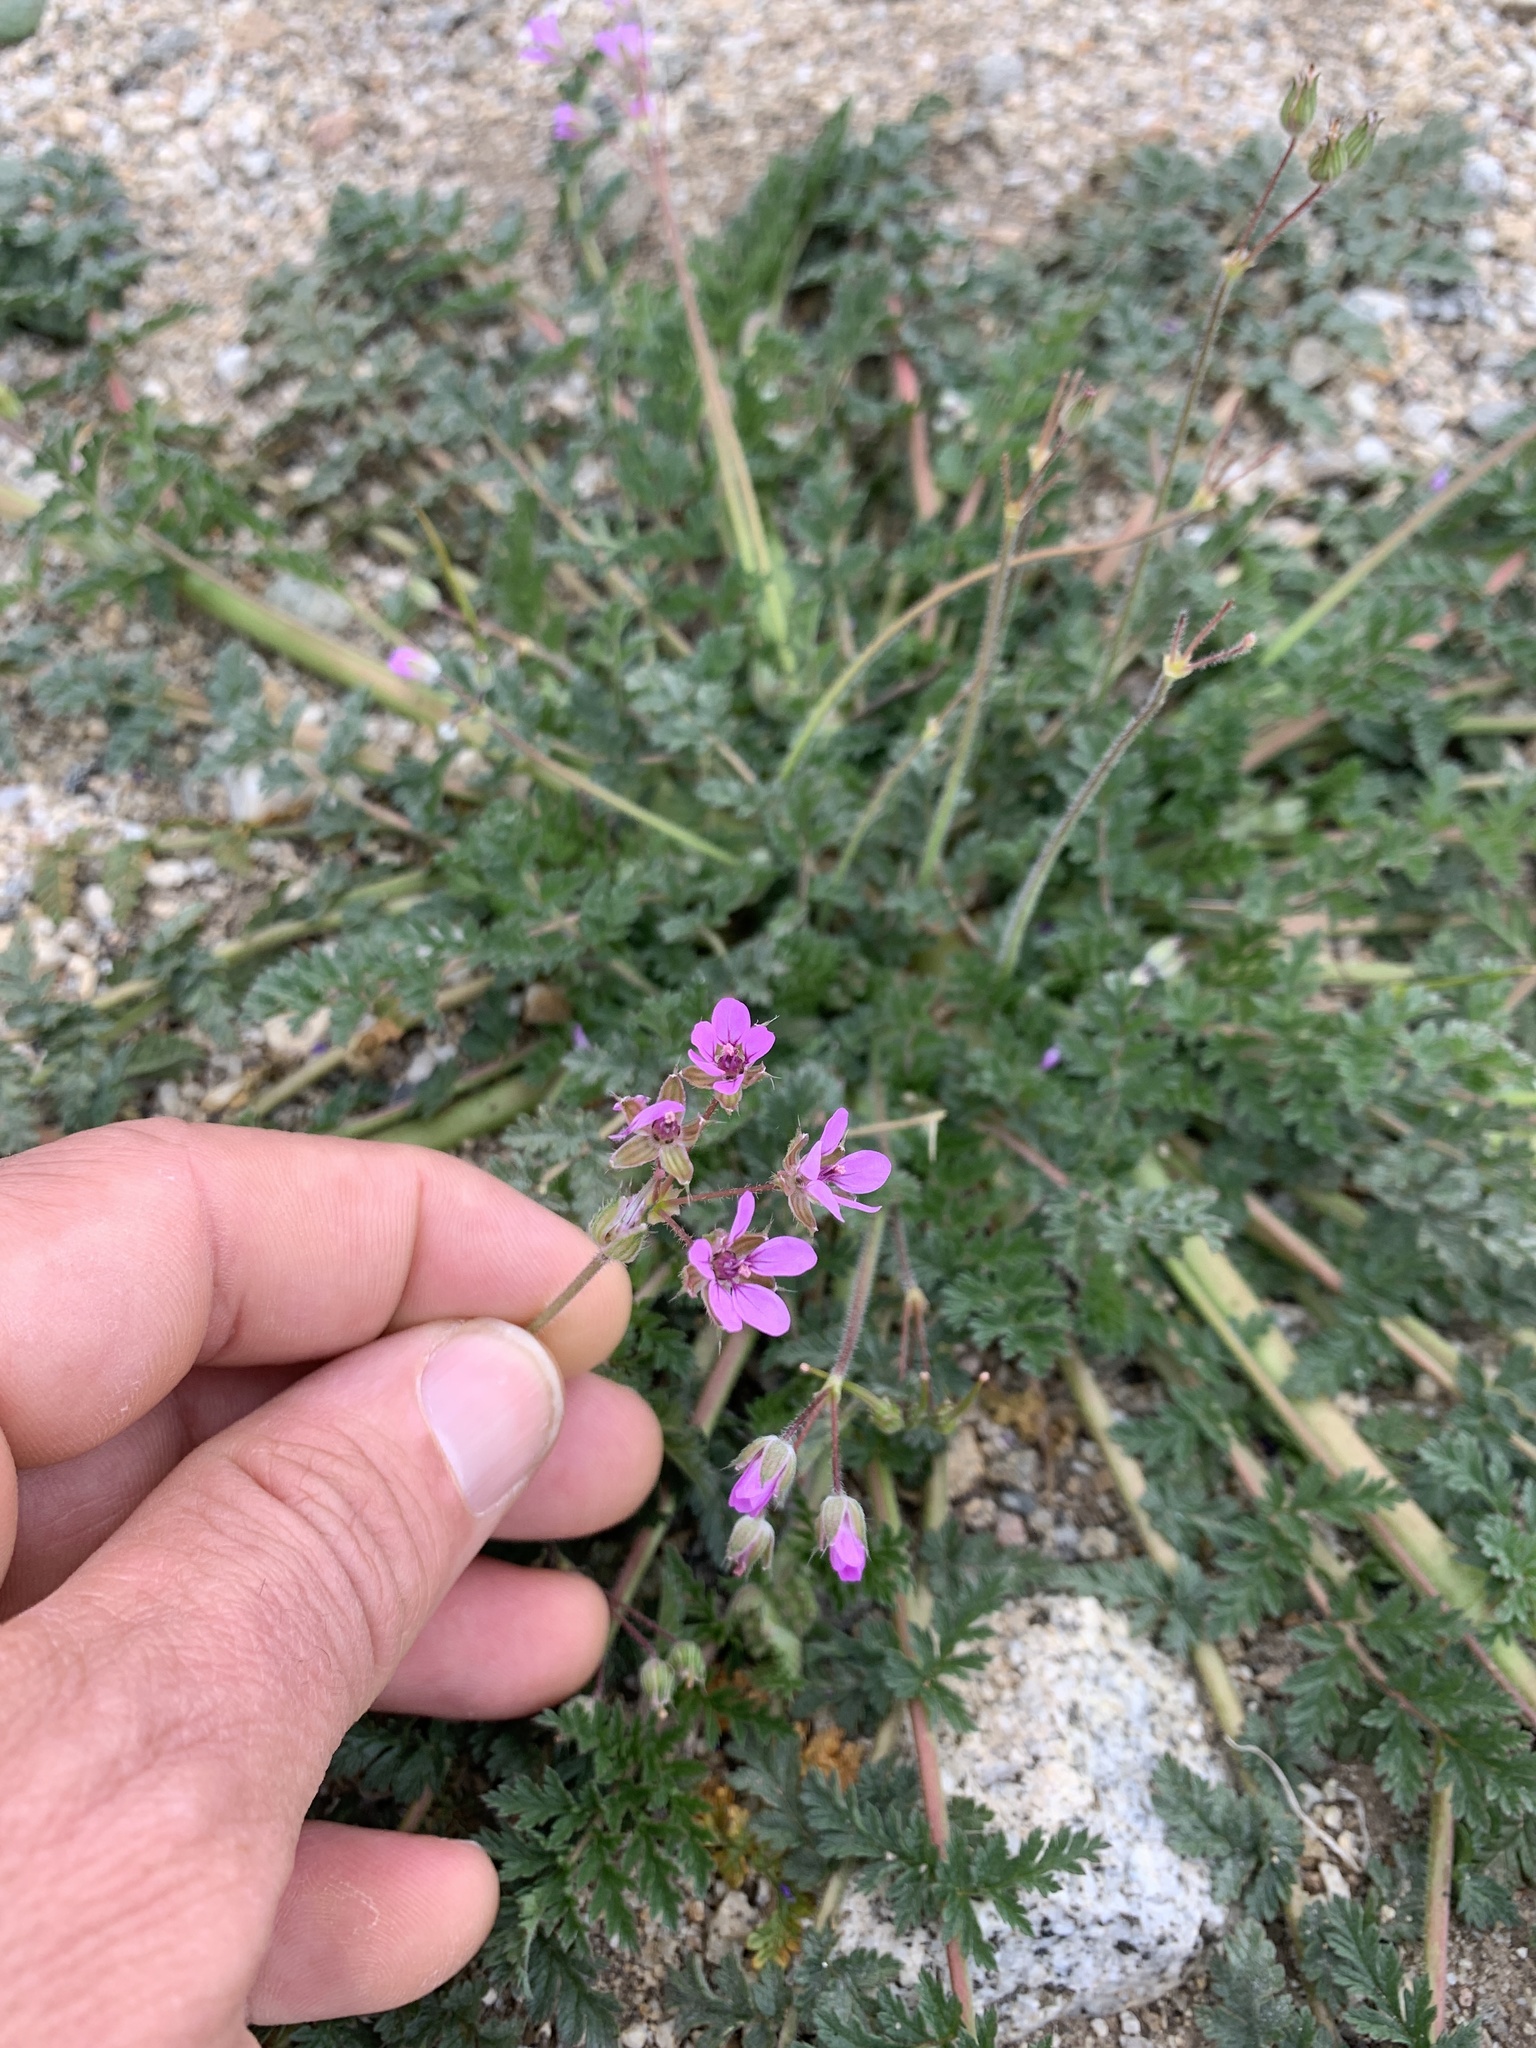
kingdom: Plantae
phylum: Tracheophyta
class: Magnoliopsida
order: Geraniales
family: Geraniaceae
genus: Erodium
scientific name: Erodium cicutarium
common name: Common stork's-bill
